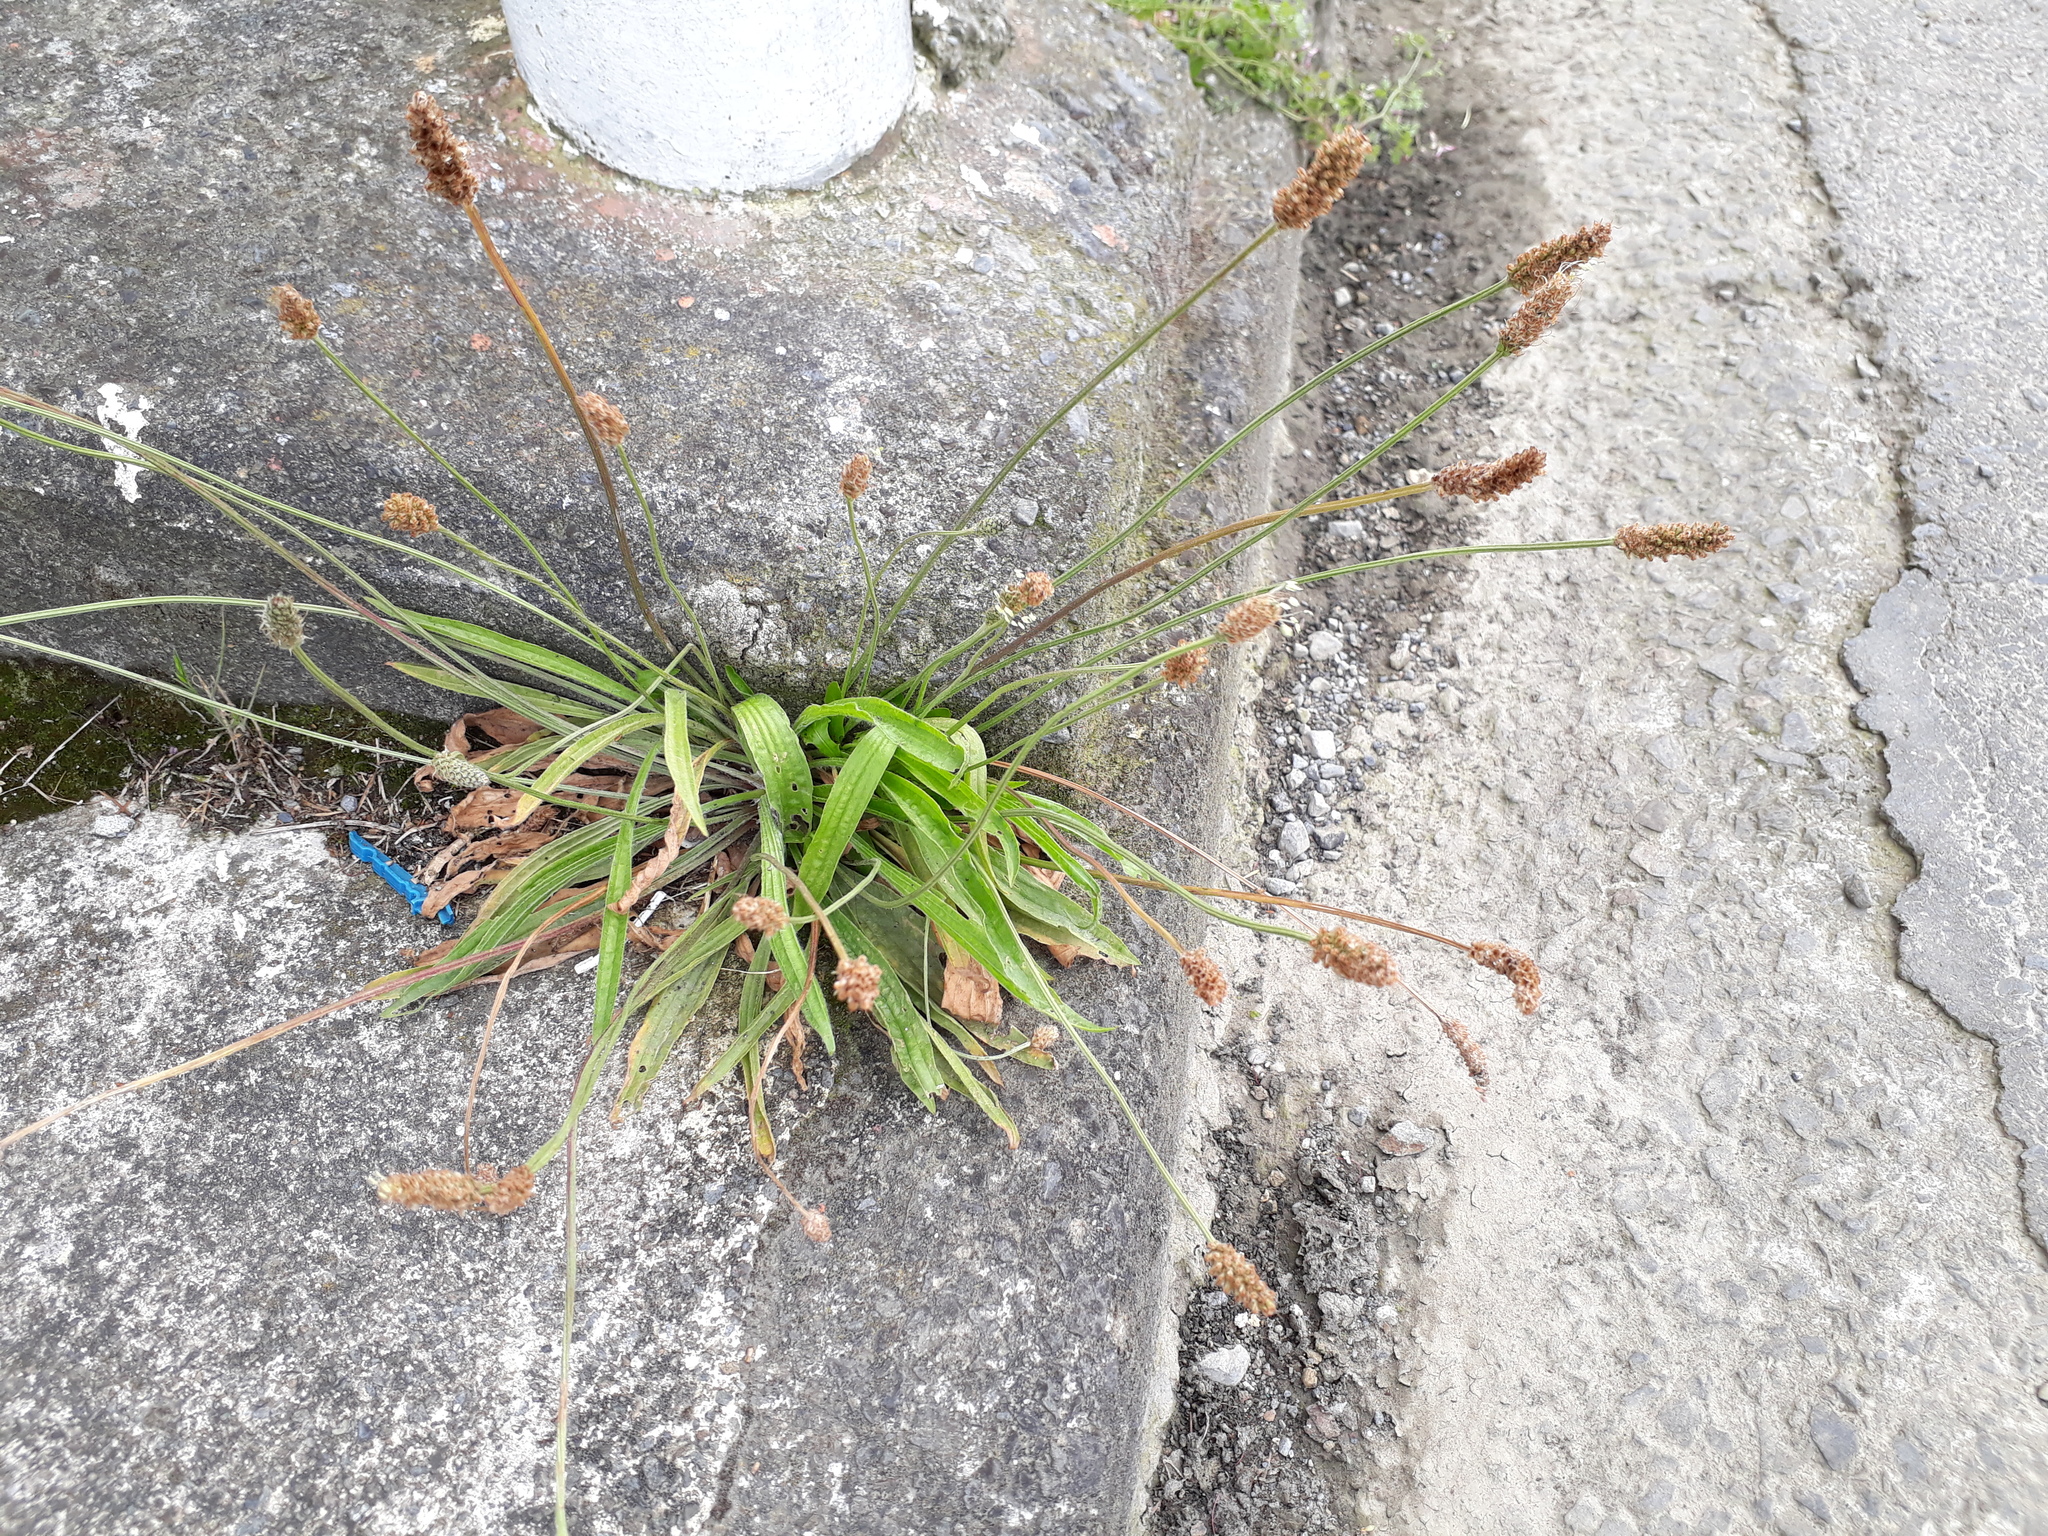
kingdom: Plantae
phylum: Tracheophyta
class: Magnoliopsida
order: Lamiales
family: Plantaginaceae
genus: Plantago
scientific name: Plantago lanceolata
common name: Ribwort plantain
